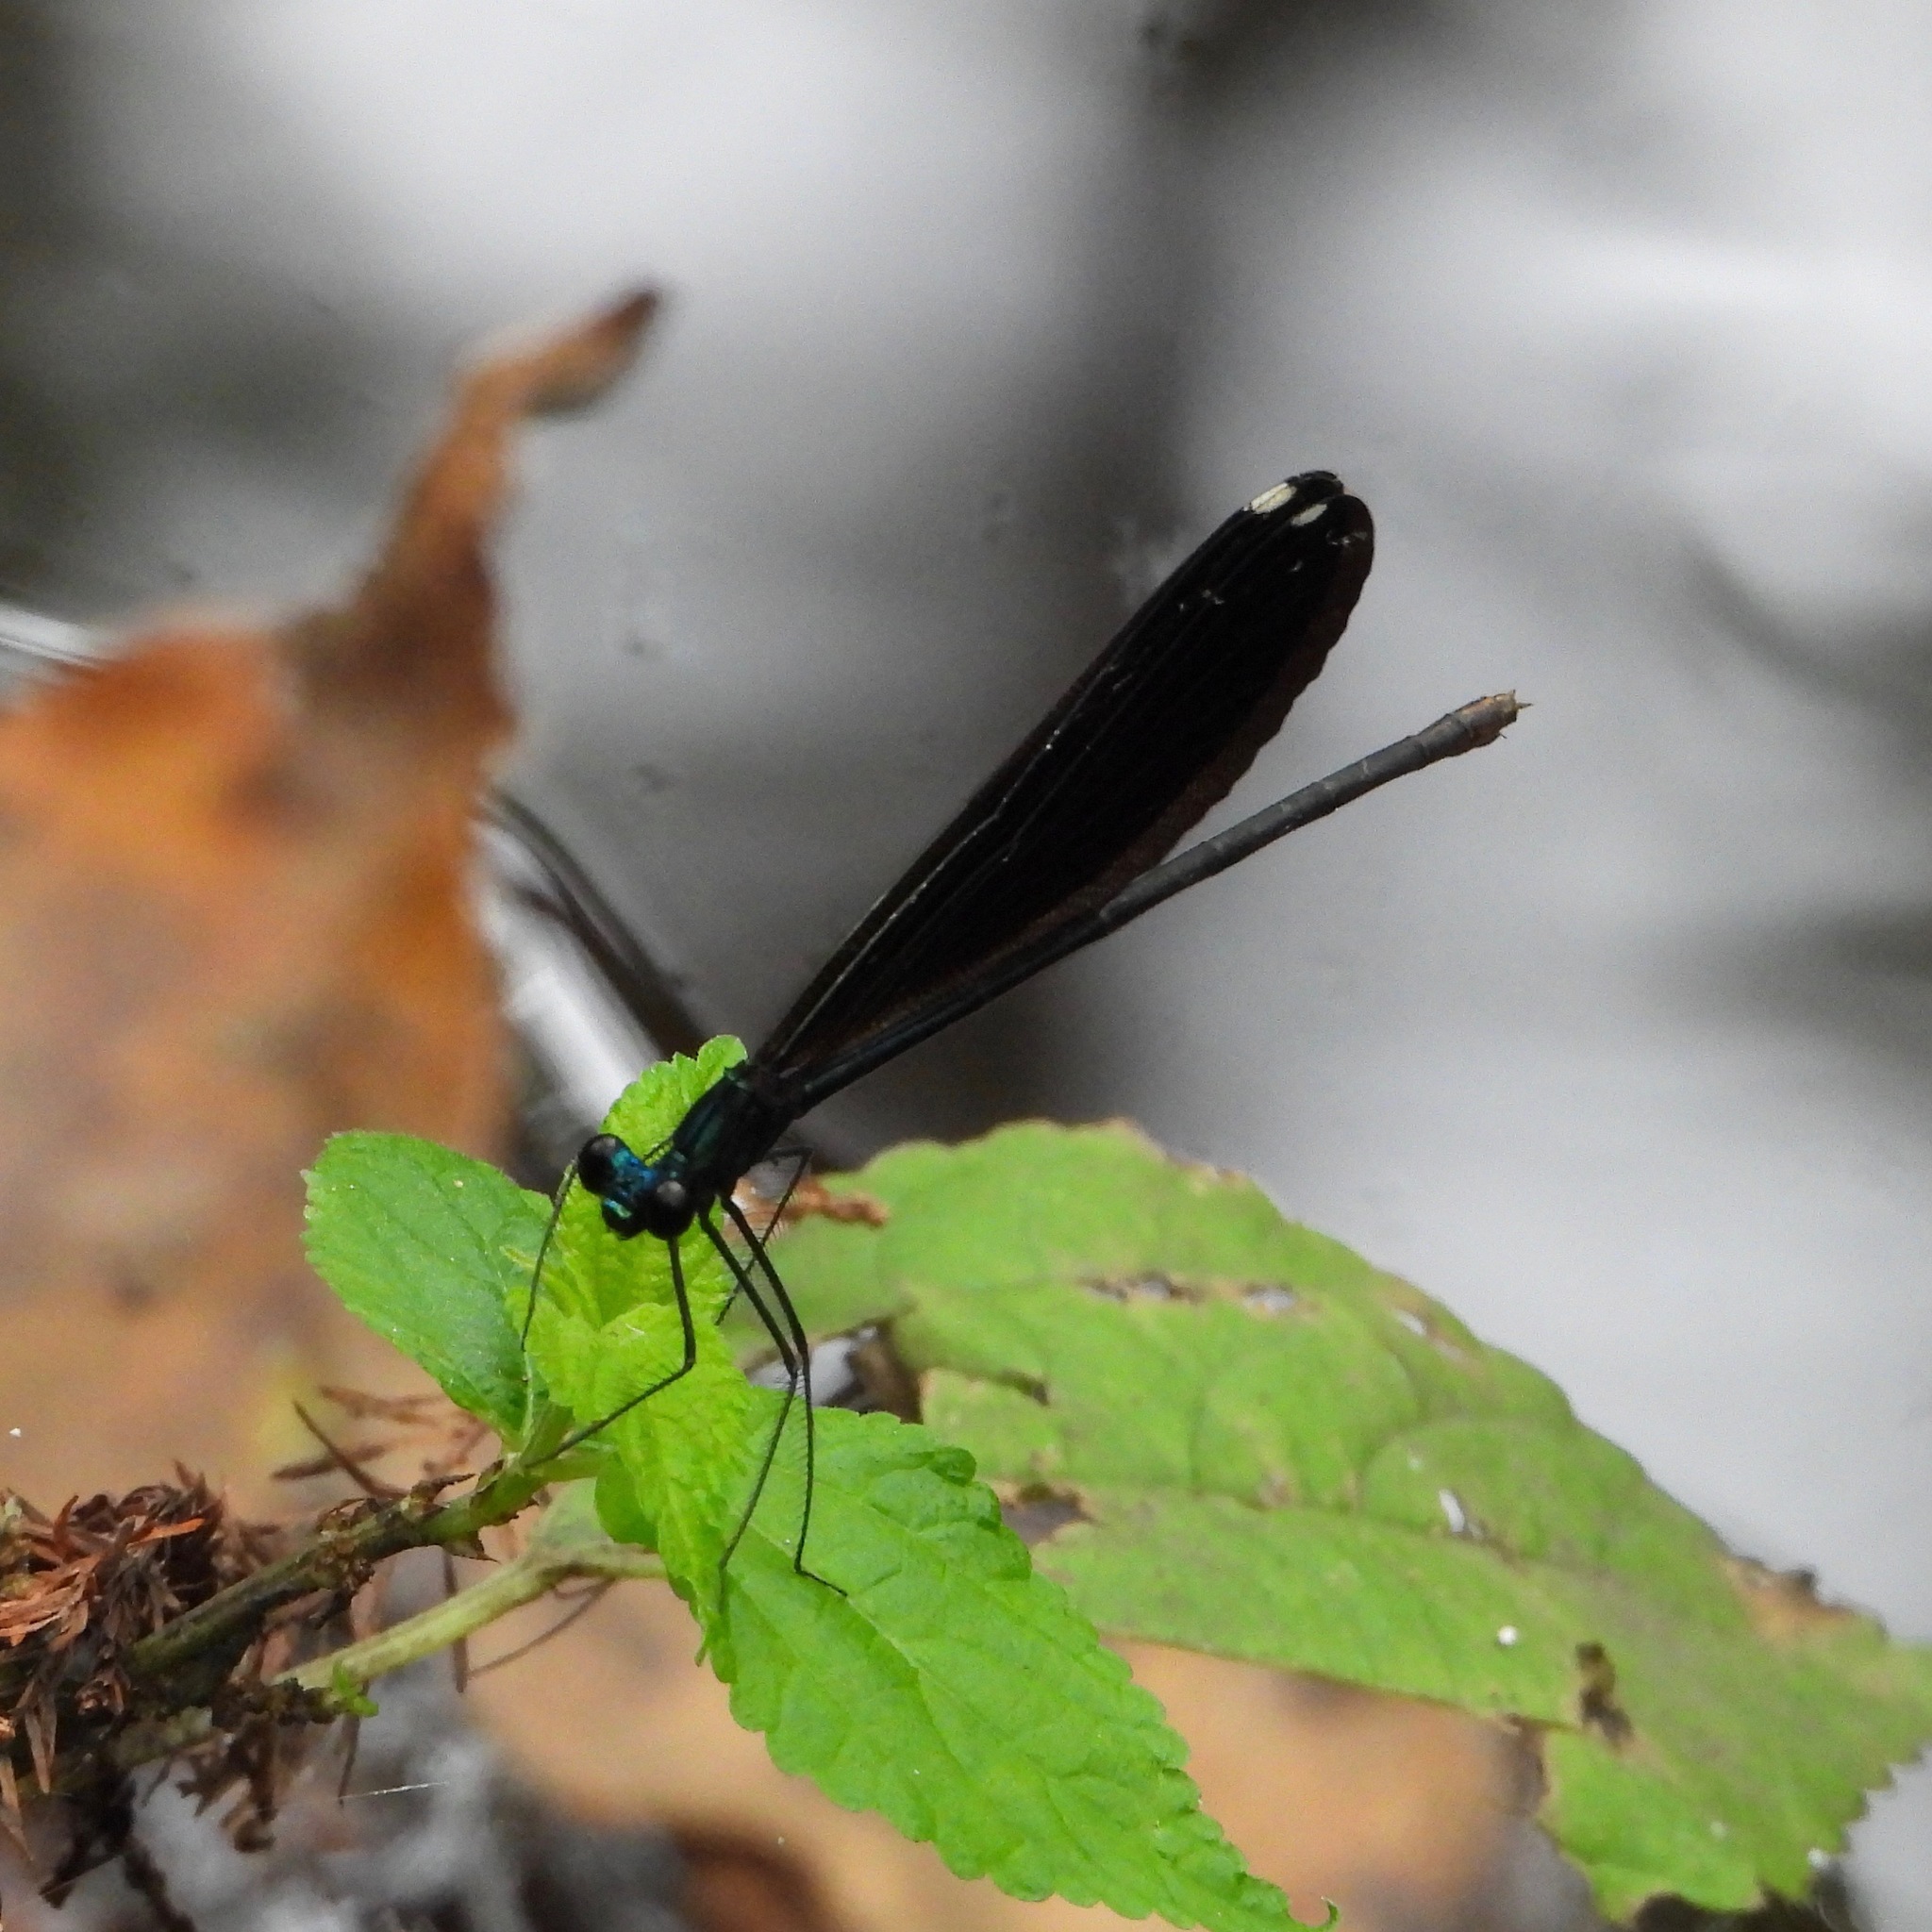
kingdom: Animalia
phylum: Arthropoda
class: Insecta
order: Odonata
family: Calopterygidae
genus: Calopteryx
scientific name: Calopteryx maculata
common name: Ebony jewelwing
